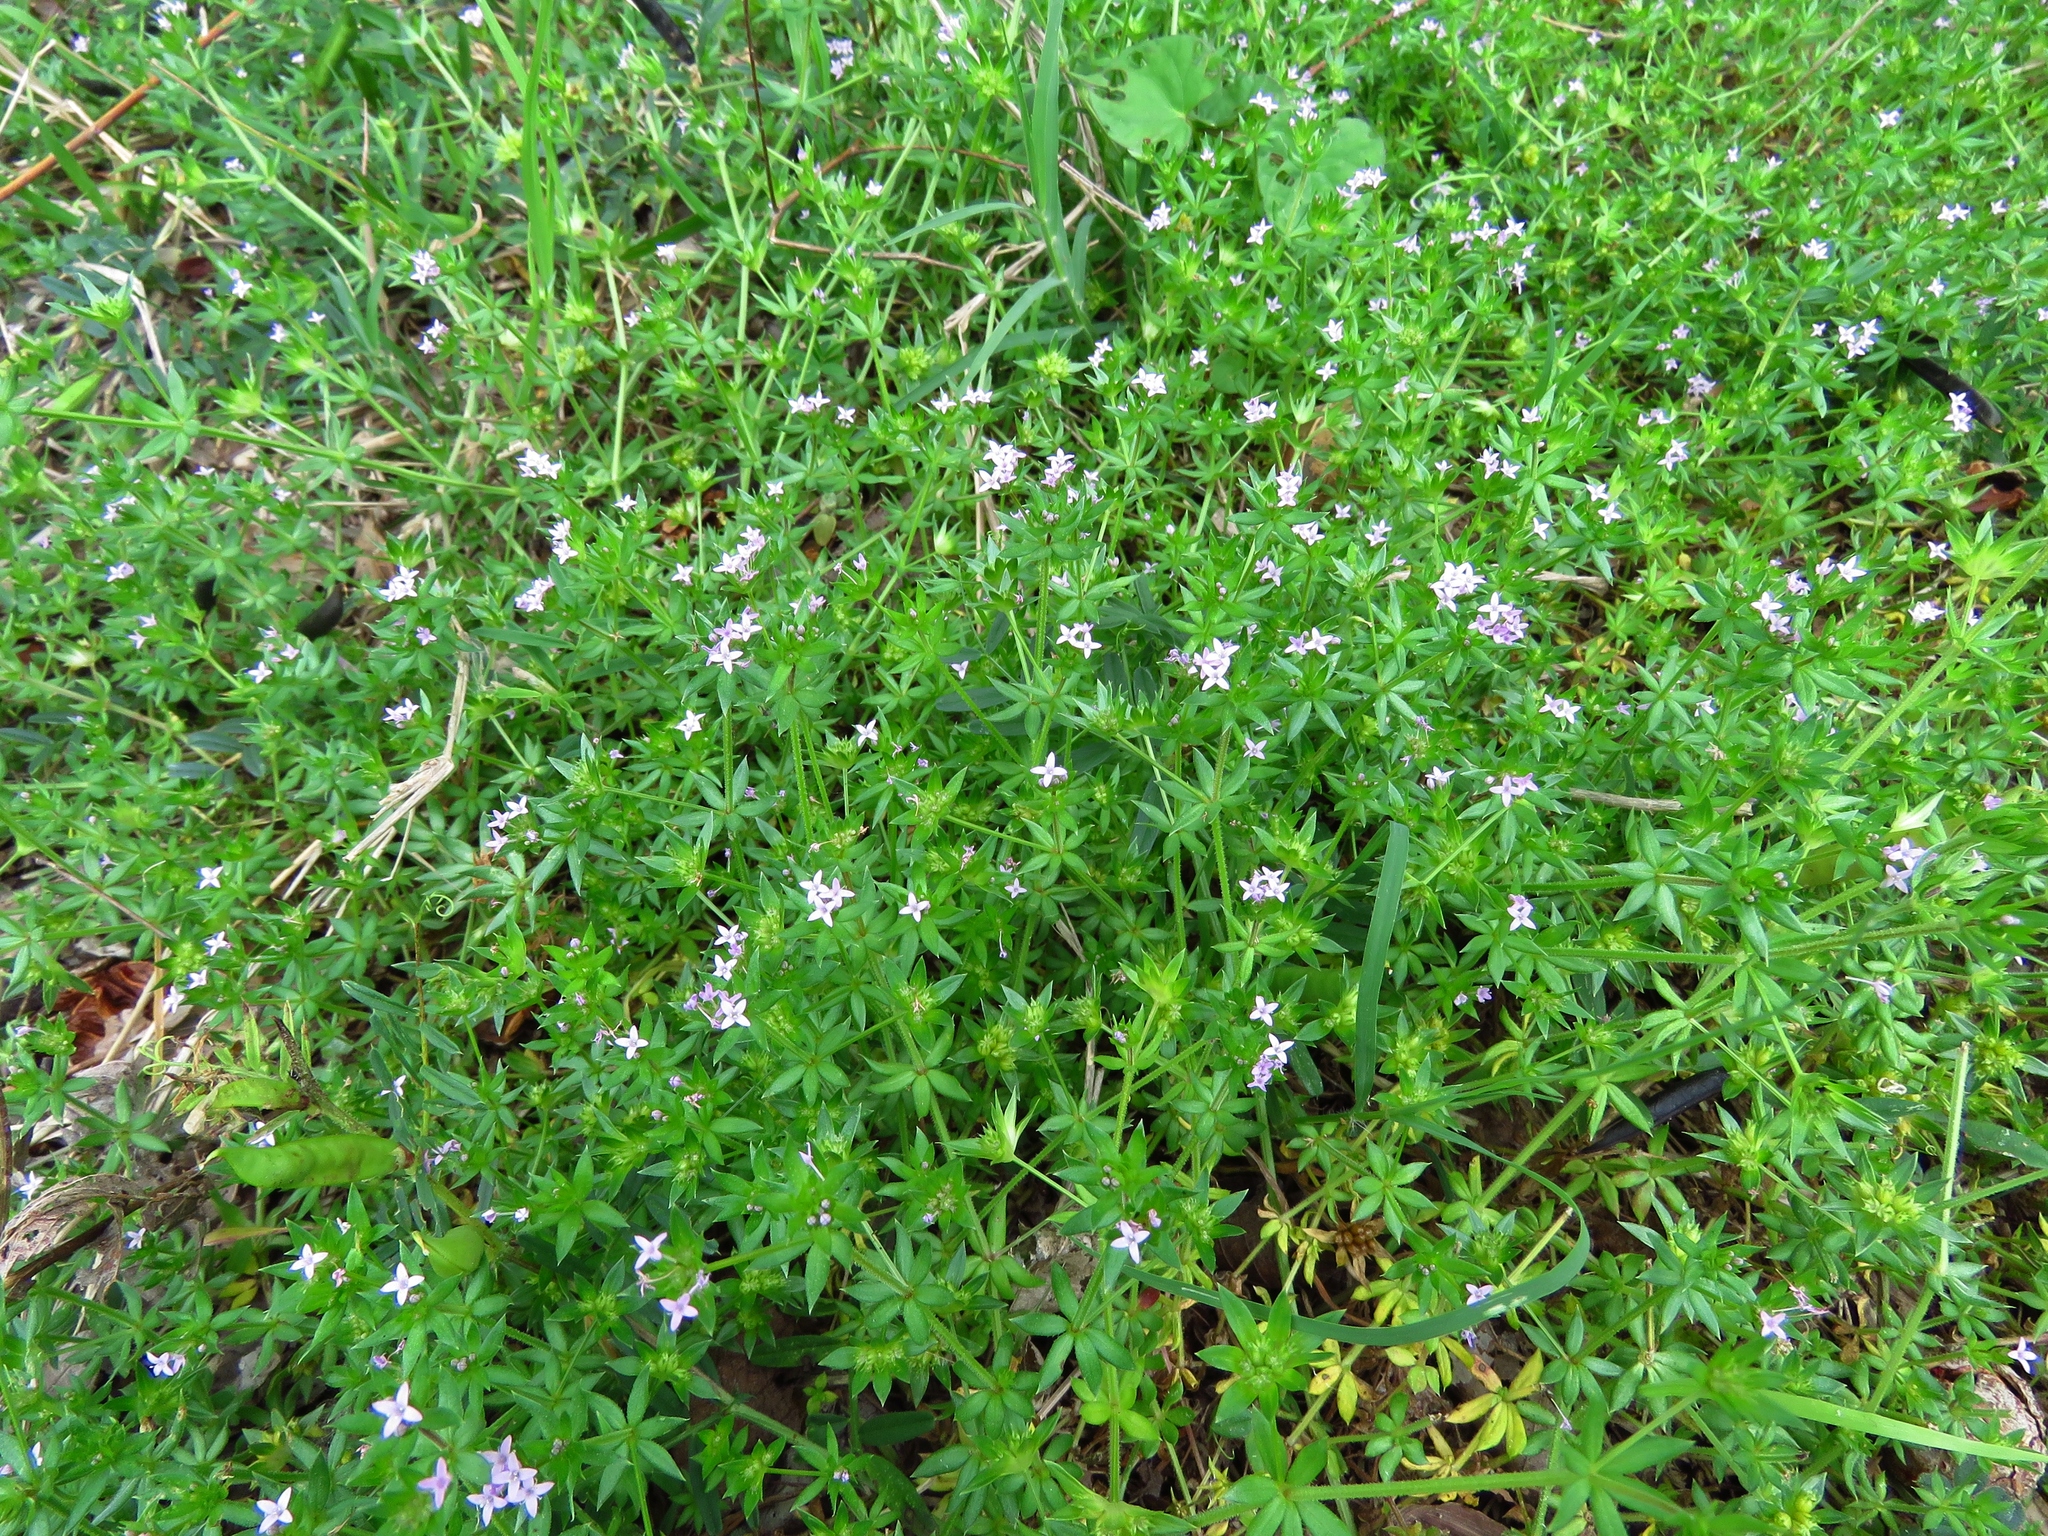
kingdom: Plantae
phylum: Tracheophyta
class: Magnoliopsida
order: Gentianales
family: Rubiaceae
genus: Sherardia
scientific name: Sherardia arvensis
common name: Field madder
